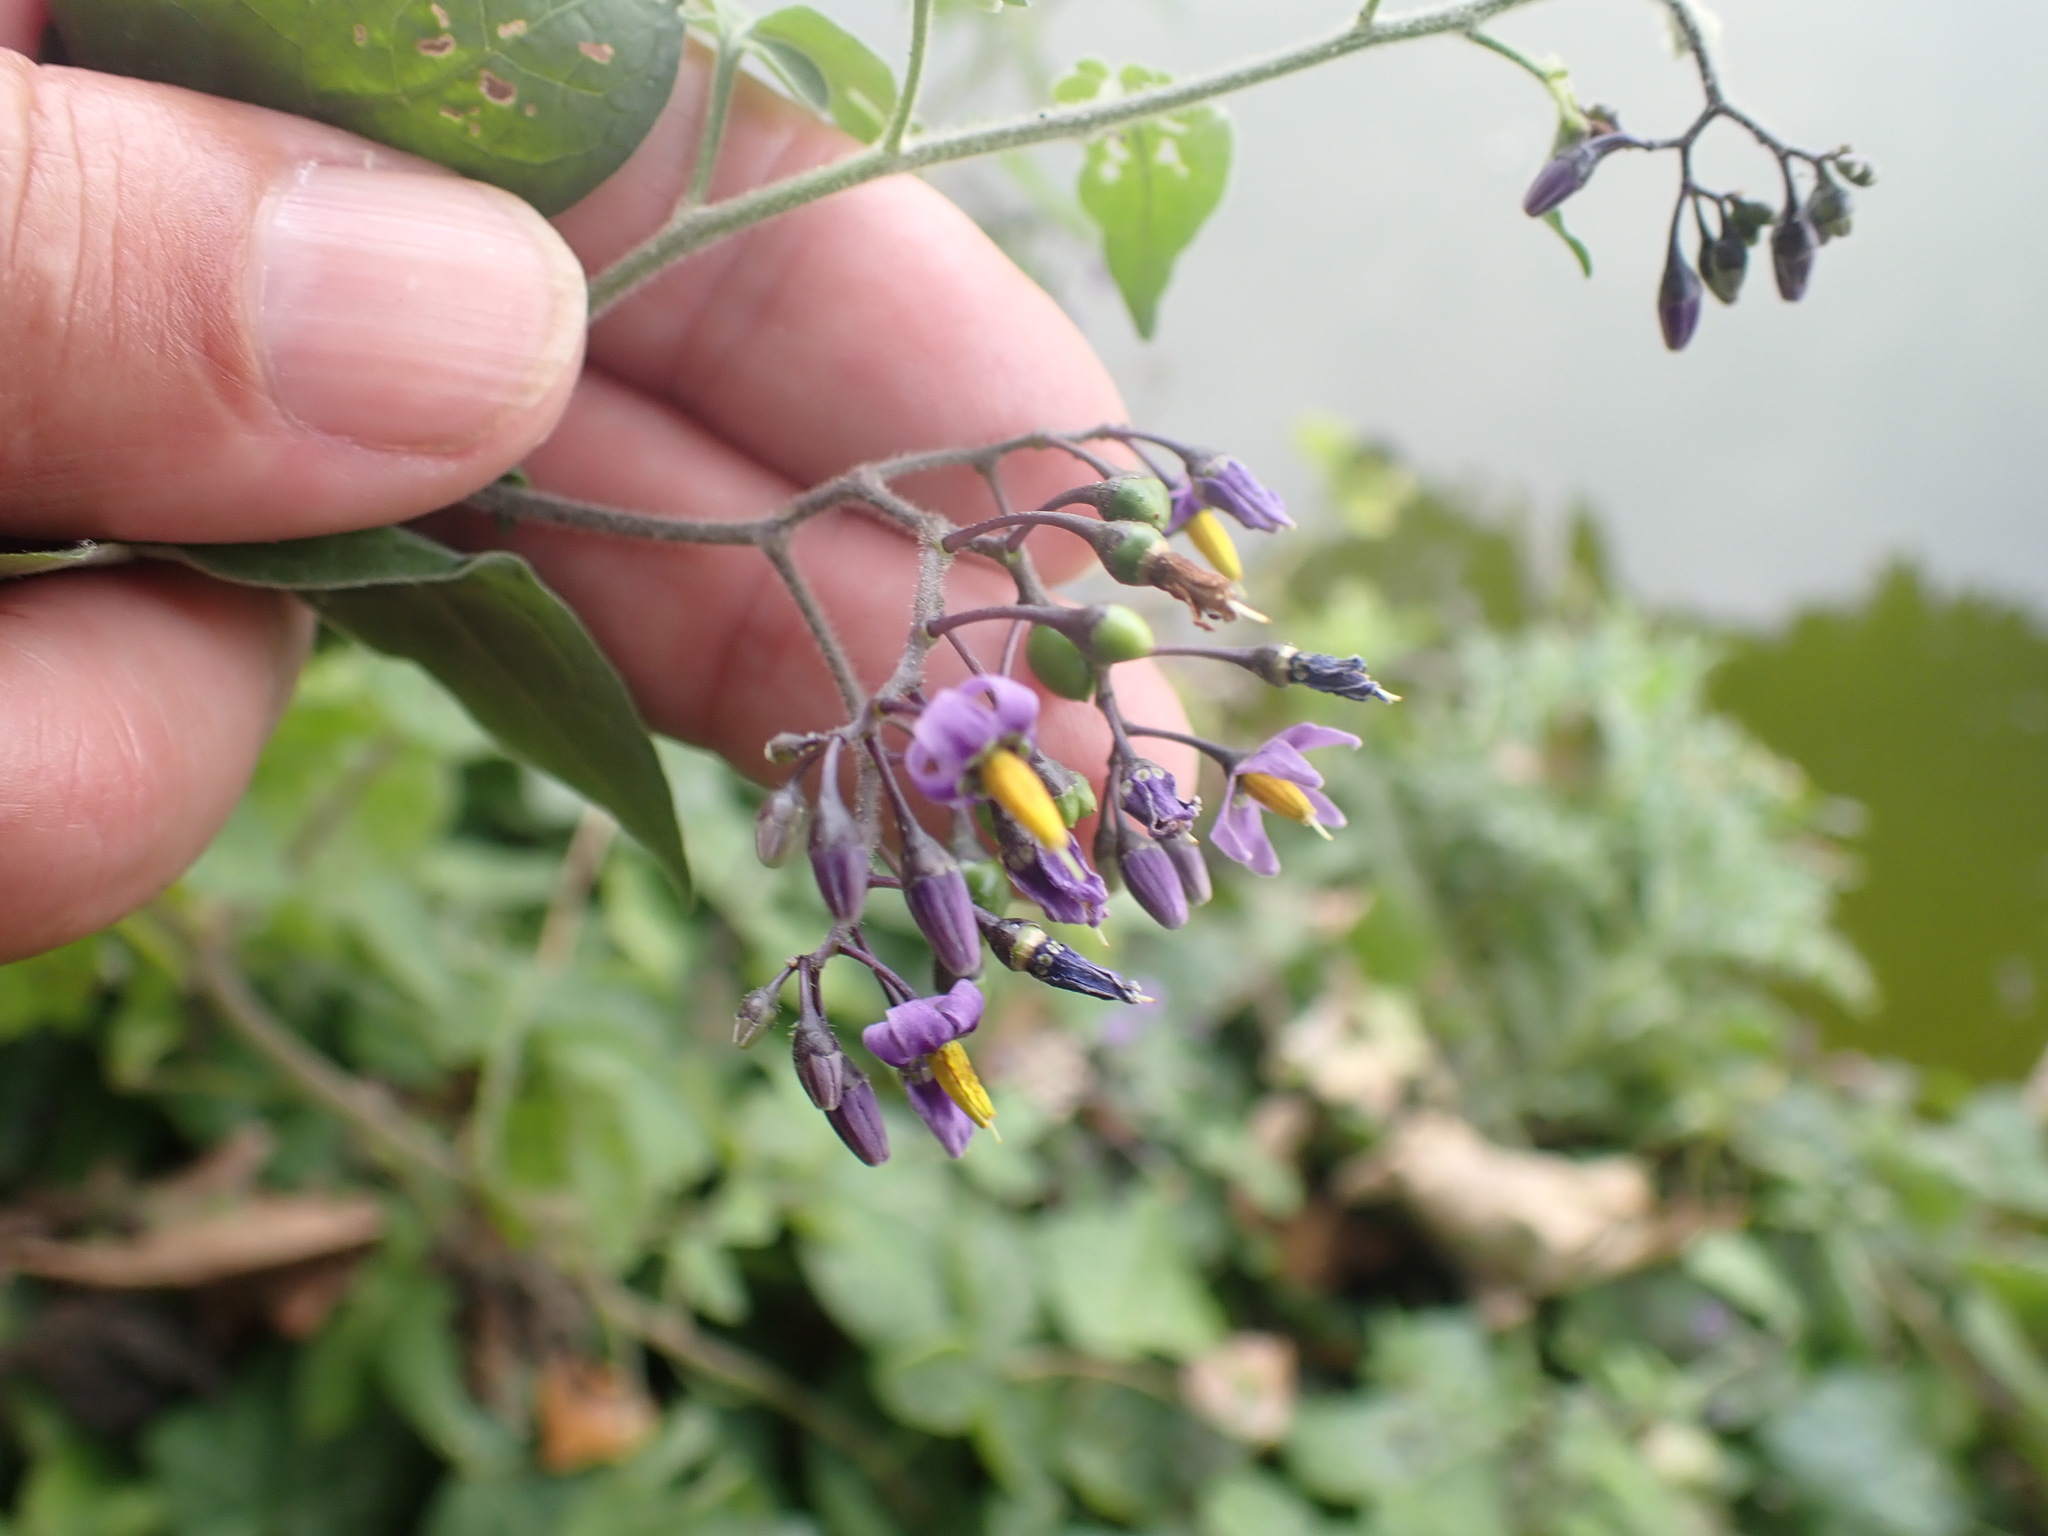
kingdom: Plantae
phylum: Tracheophyta
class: Magnoliopsida
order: Solanales
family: Solanaceae
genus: Solanum
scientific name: Solanum dulcamara
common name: Climbing nightshade
